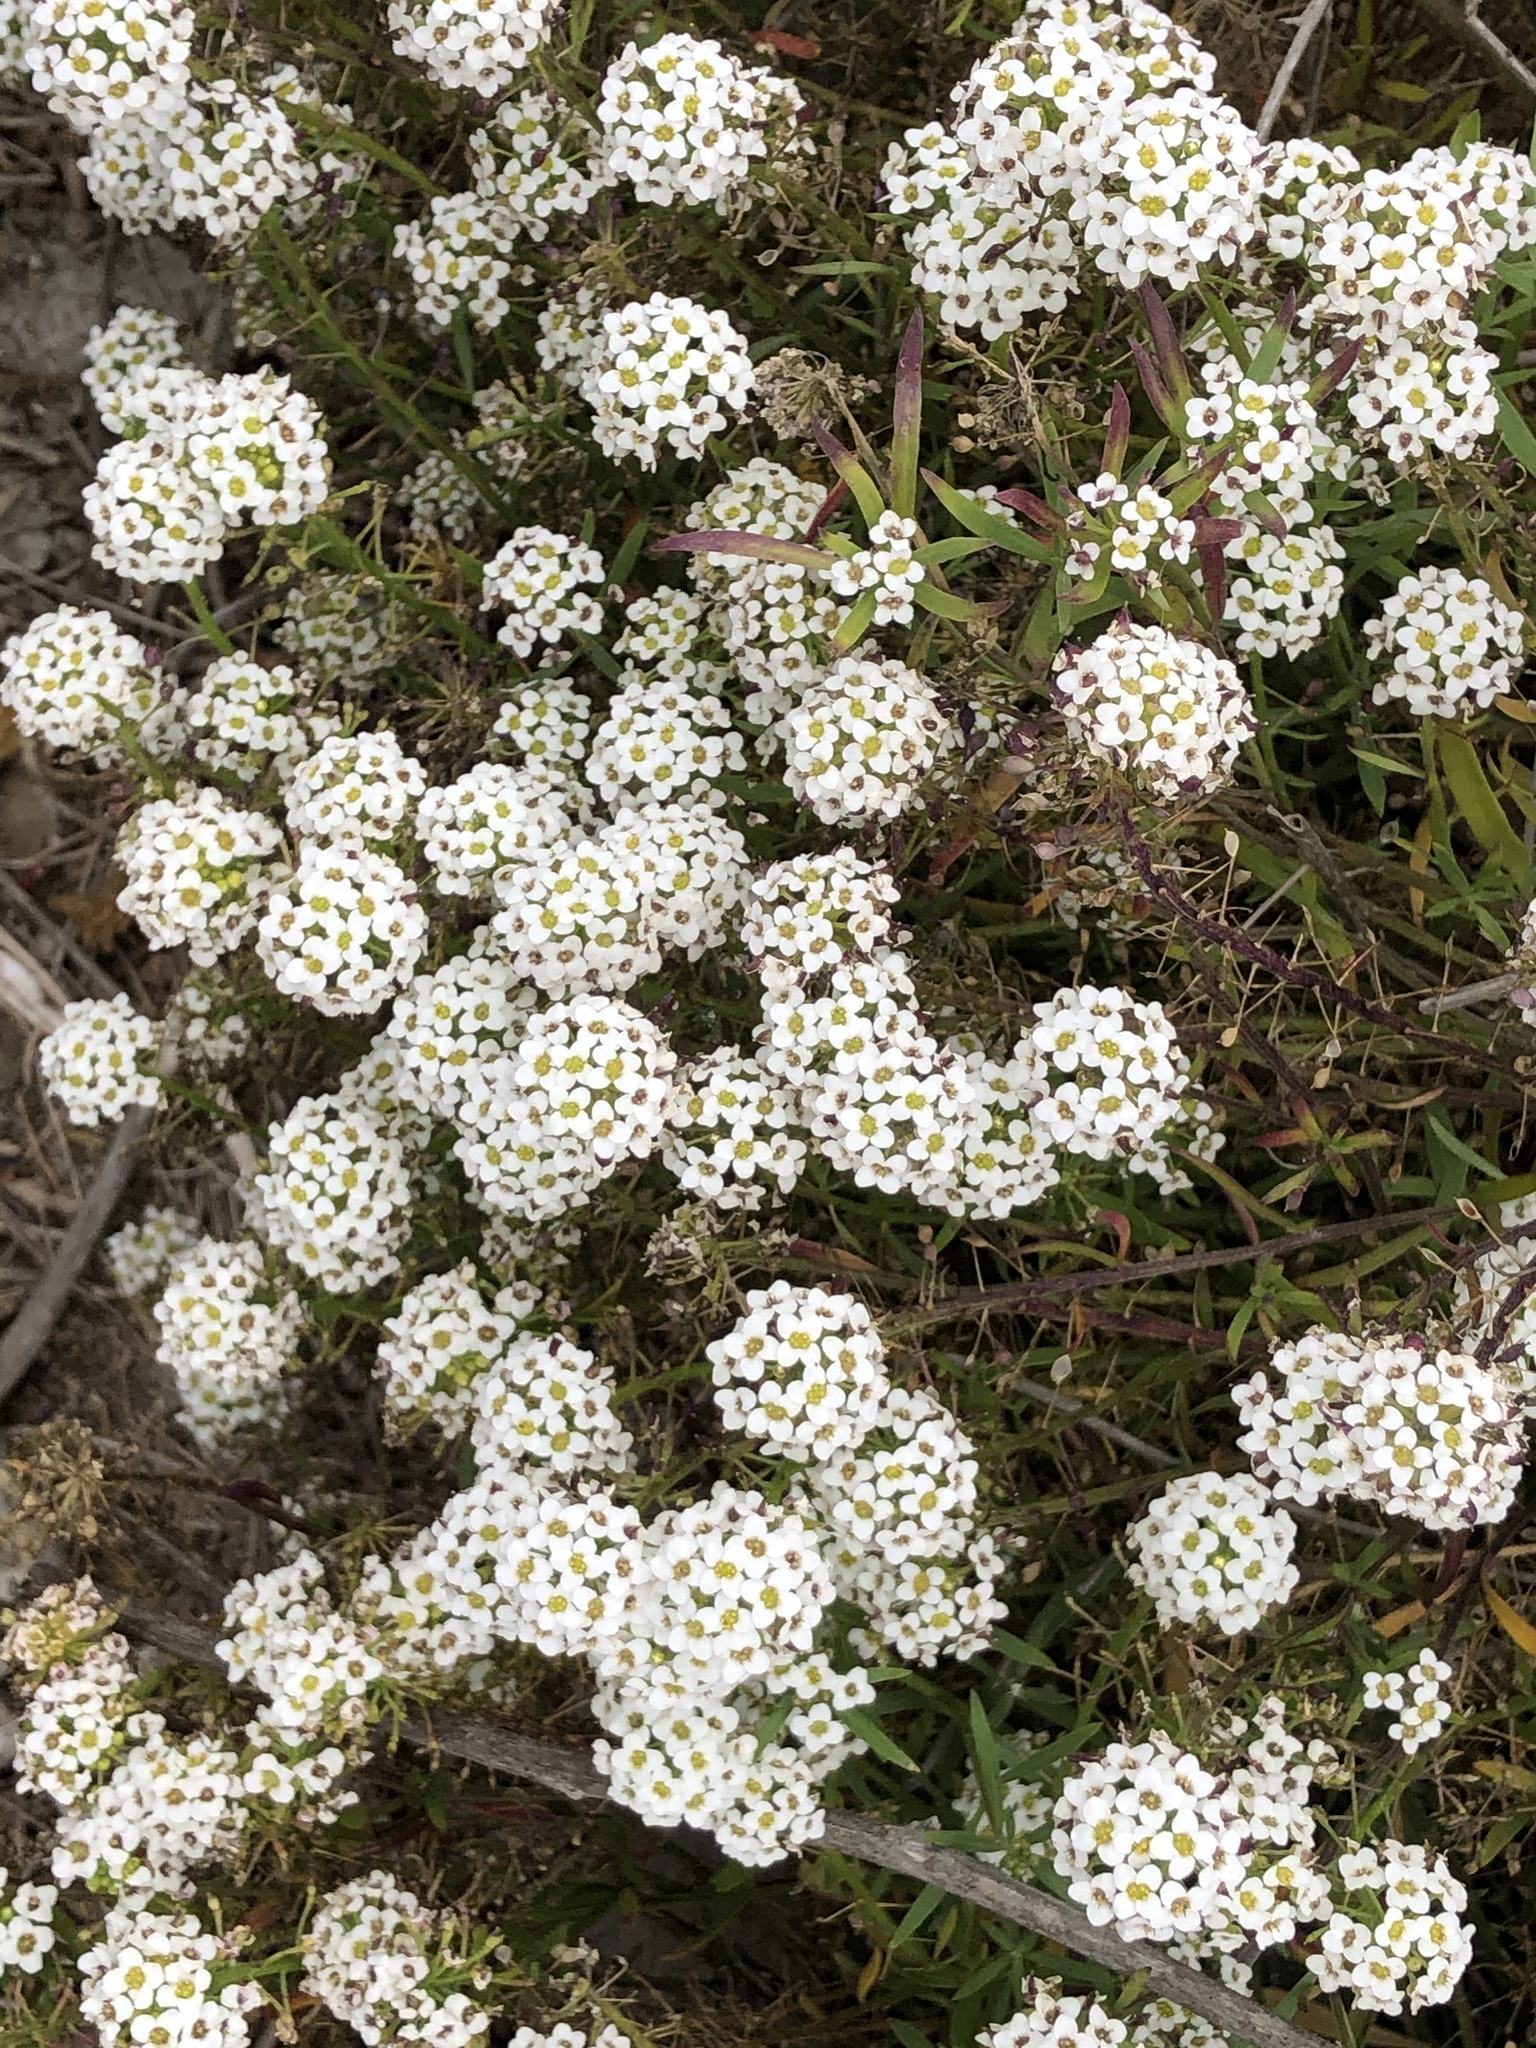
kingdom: Plantae
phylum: Tracheophyta
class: Magnoliopsida
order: Brassicales
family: Brassicaceae
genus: Lobularia
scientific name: Lobularia maritima
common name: Sweet alison
